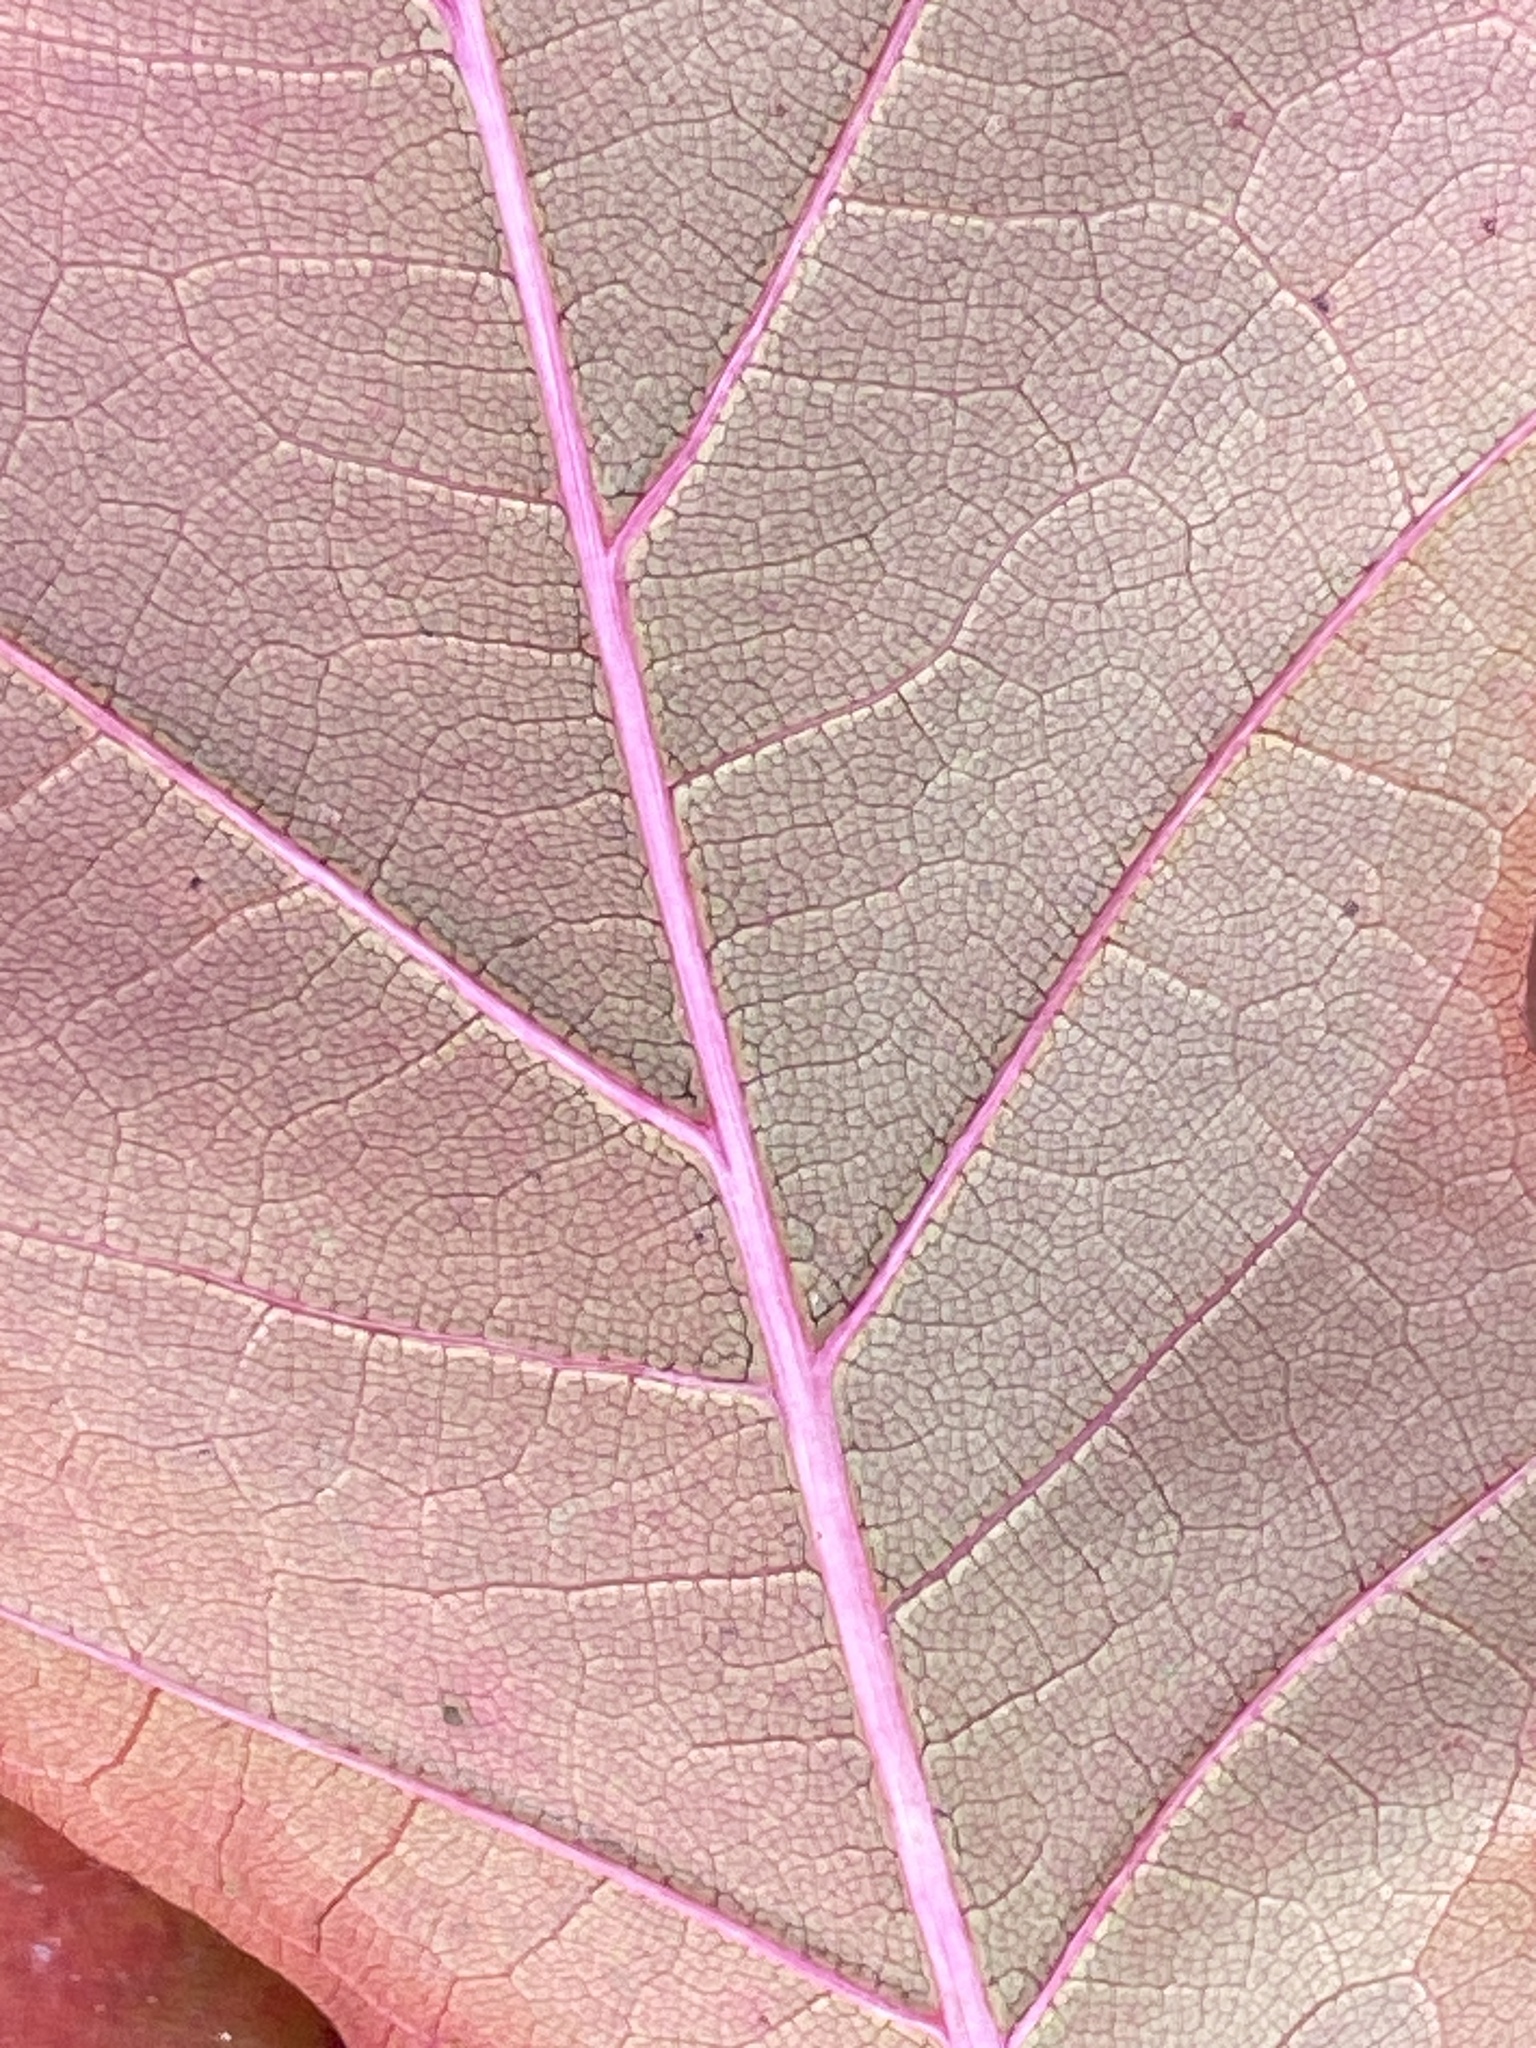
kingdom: Plantae
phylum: Tracheophyta
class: Magnoliopsida
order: Fagales
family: Fagaceae
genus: Quercus
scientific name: Quercus rubra
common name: Red oak
